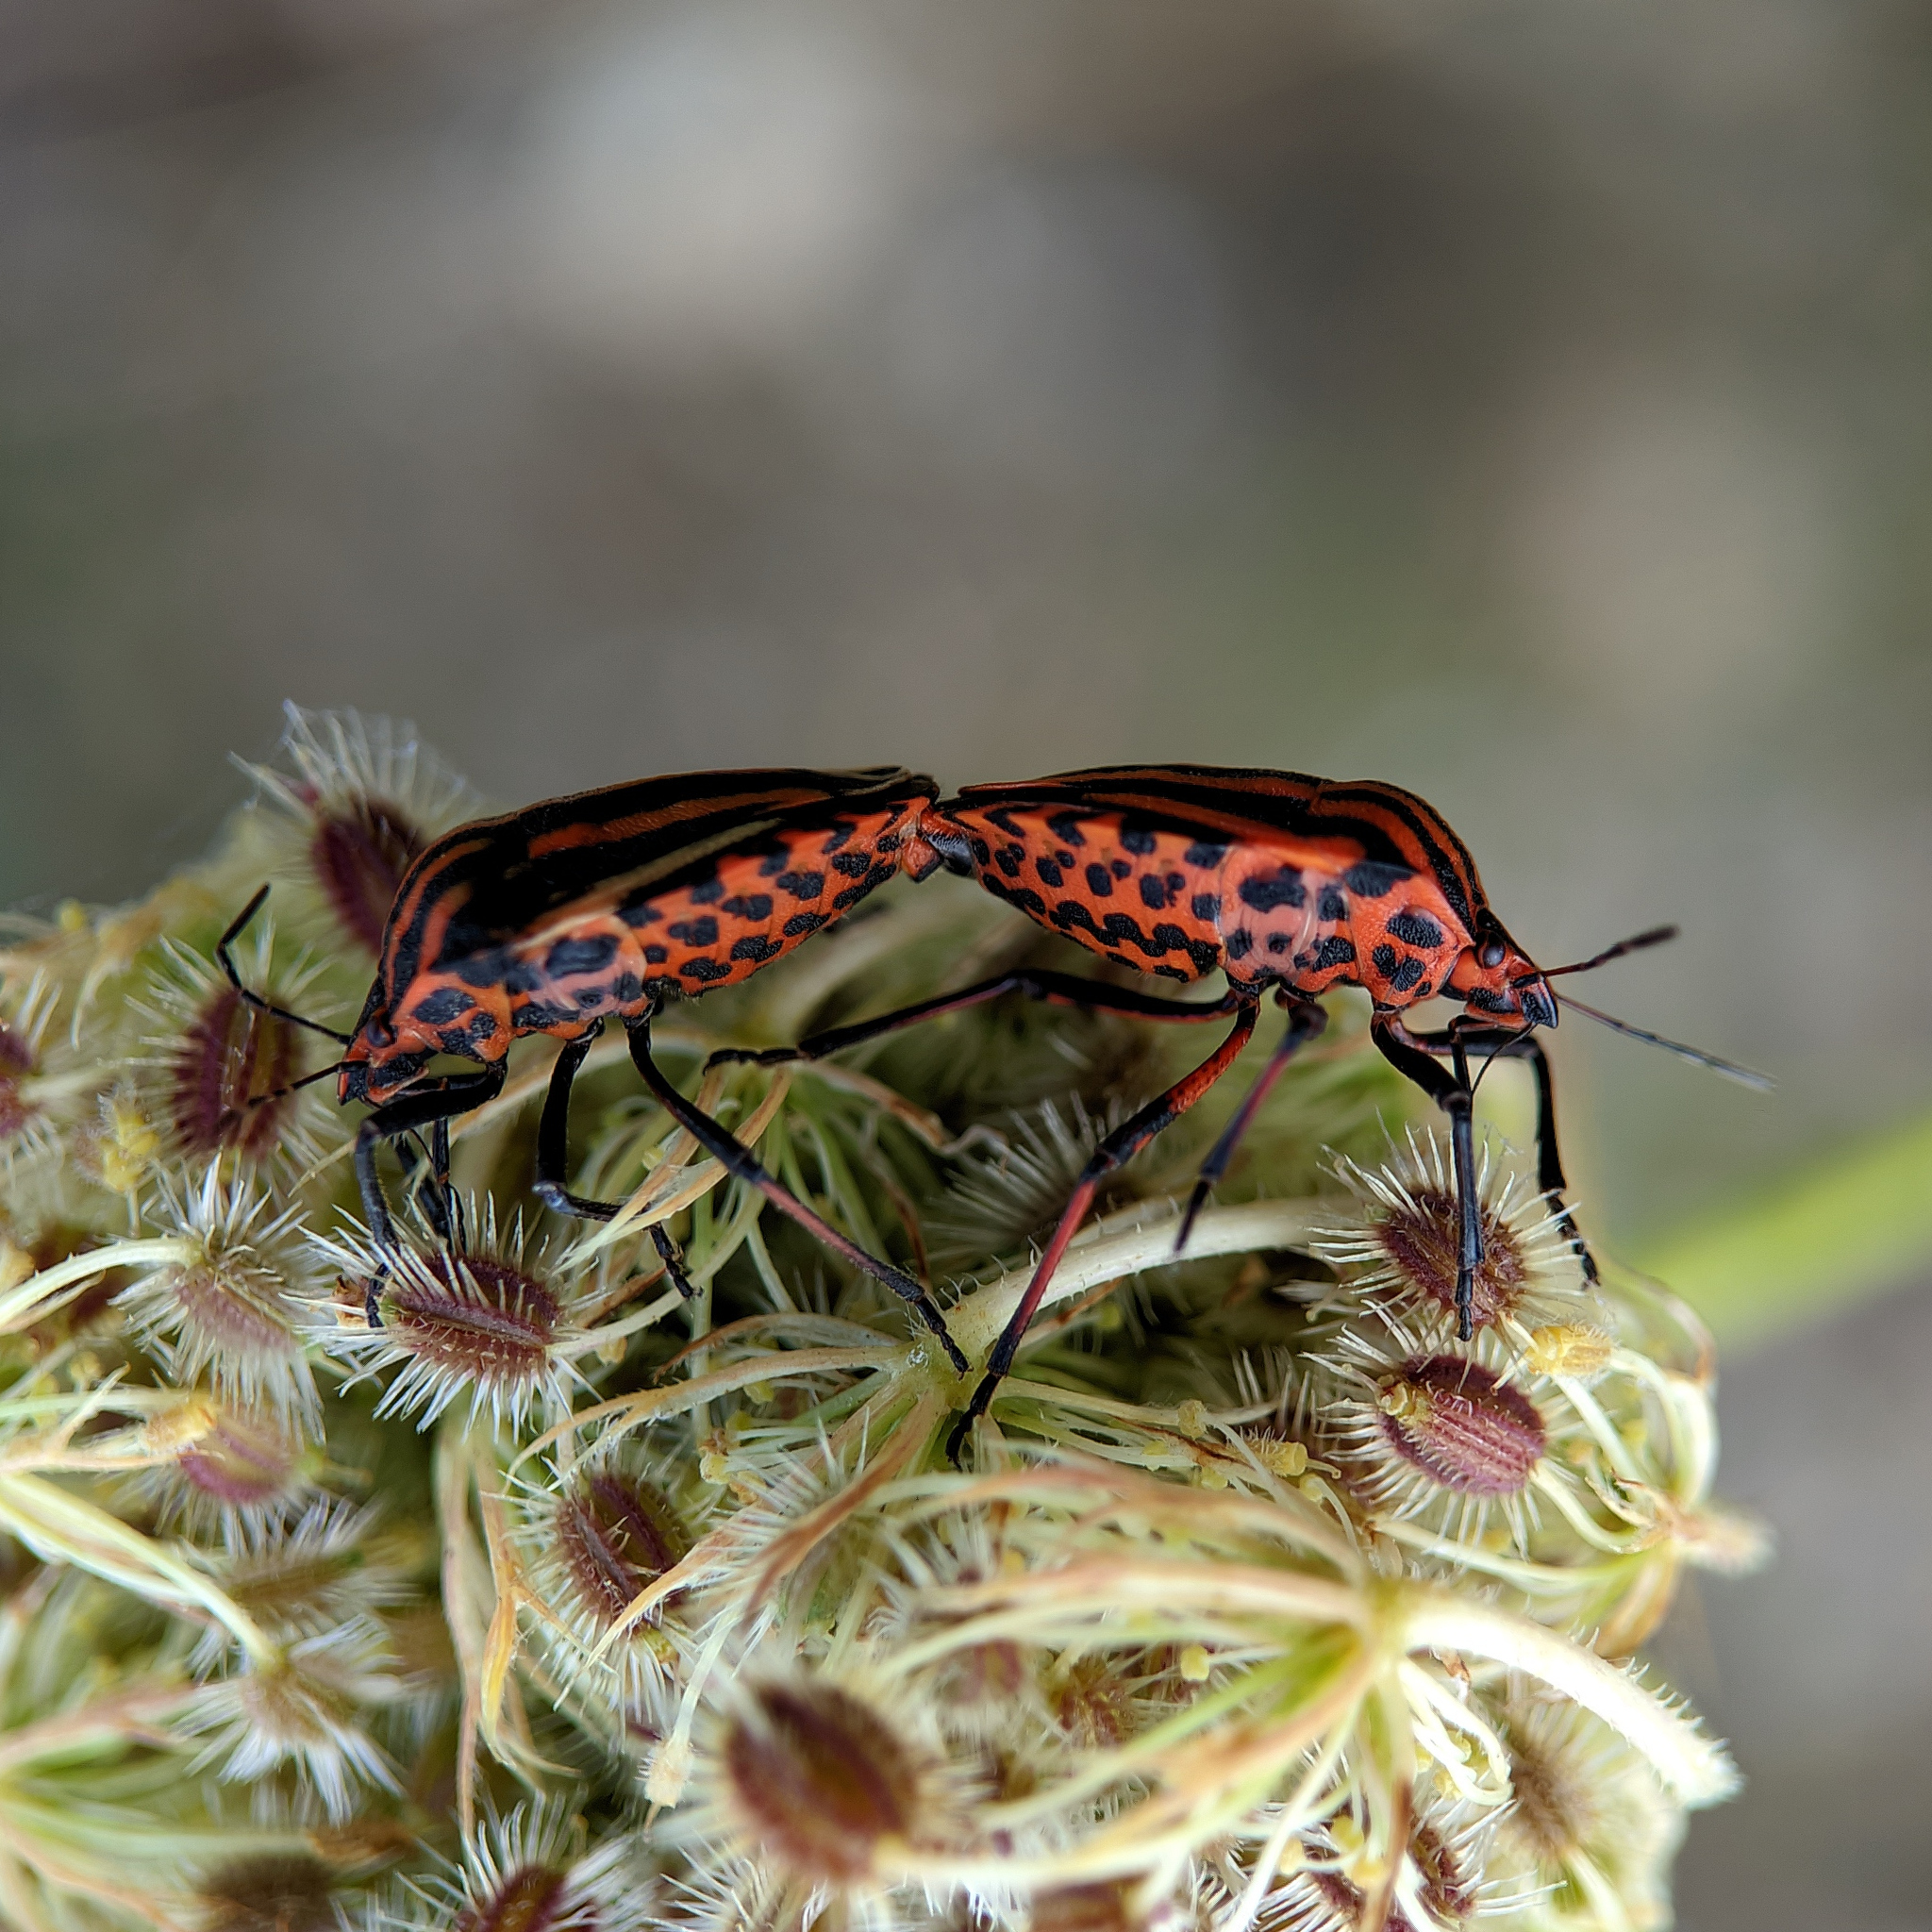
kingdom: Animalia
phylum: Arthropoda
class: Insecta
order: Hemiptera
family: Pentatomidae
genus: Graphosoma
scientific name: Graphosoma italicum
